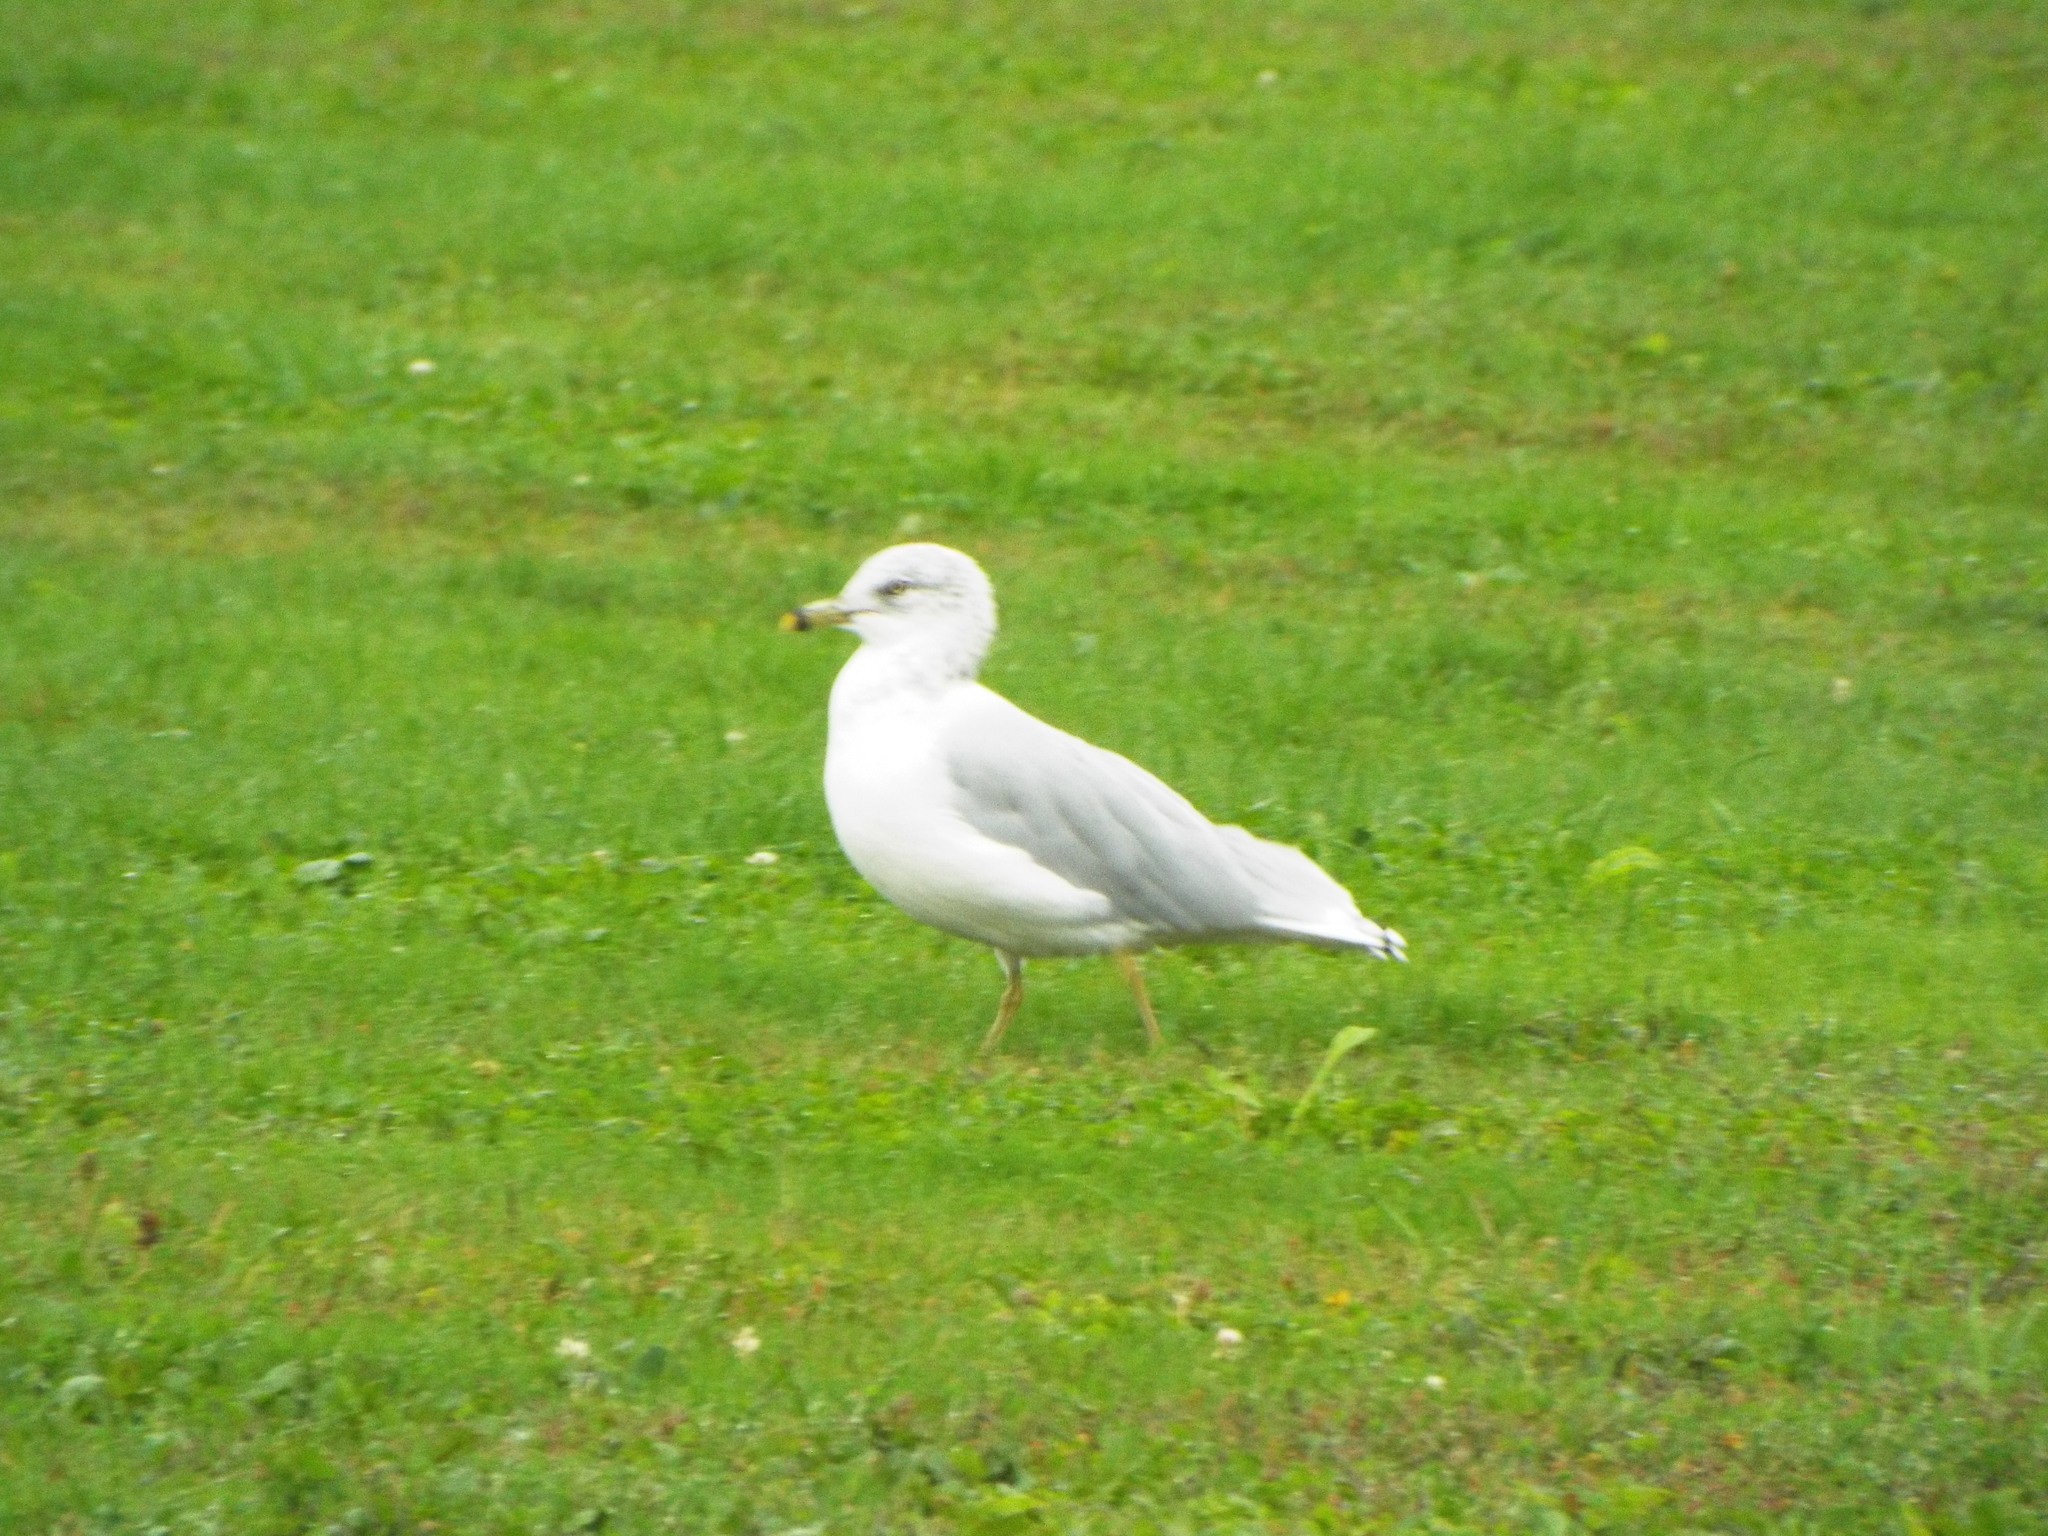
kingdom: Animalia
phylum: Chordata
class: Aves
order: Charadriiformes
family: Laridae
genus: Larus
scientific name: Larus delawarensis
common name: Ring-billed gull
